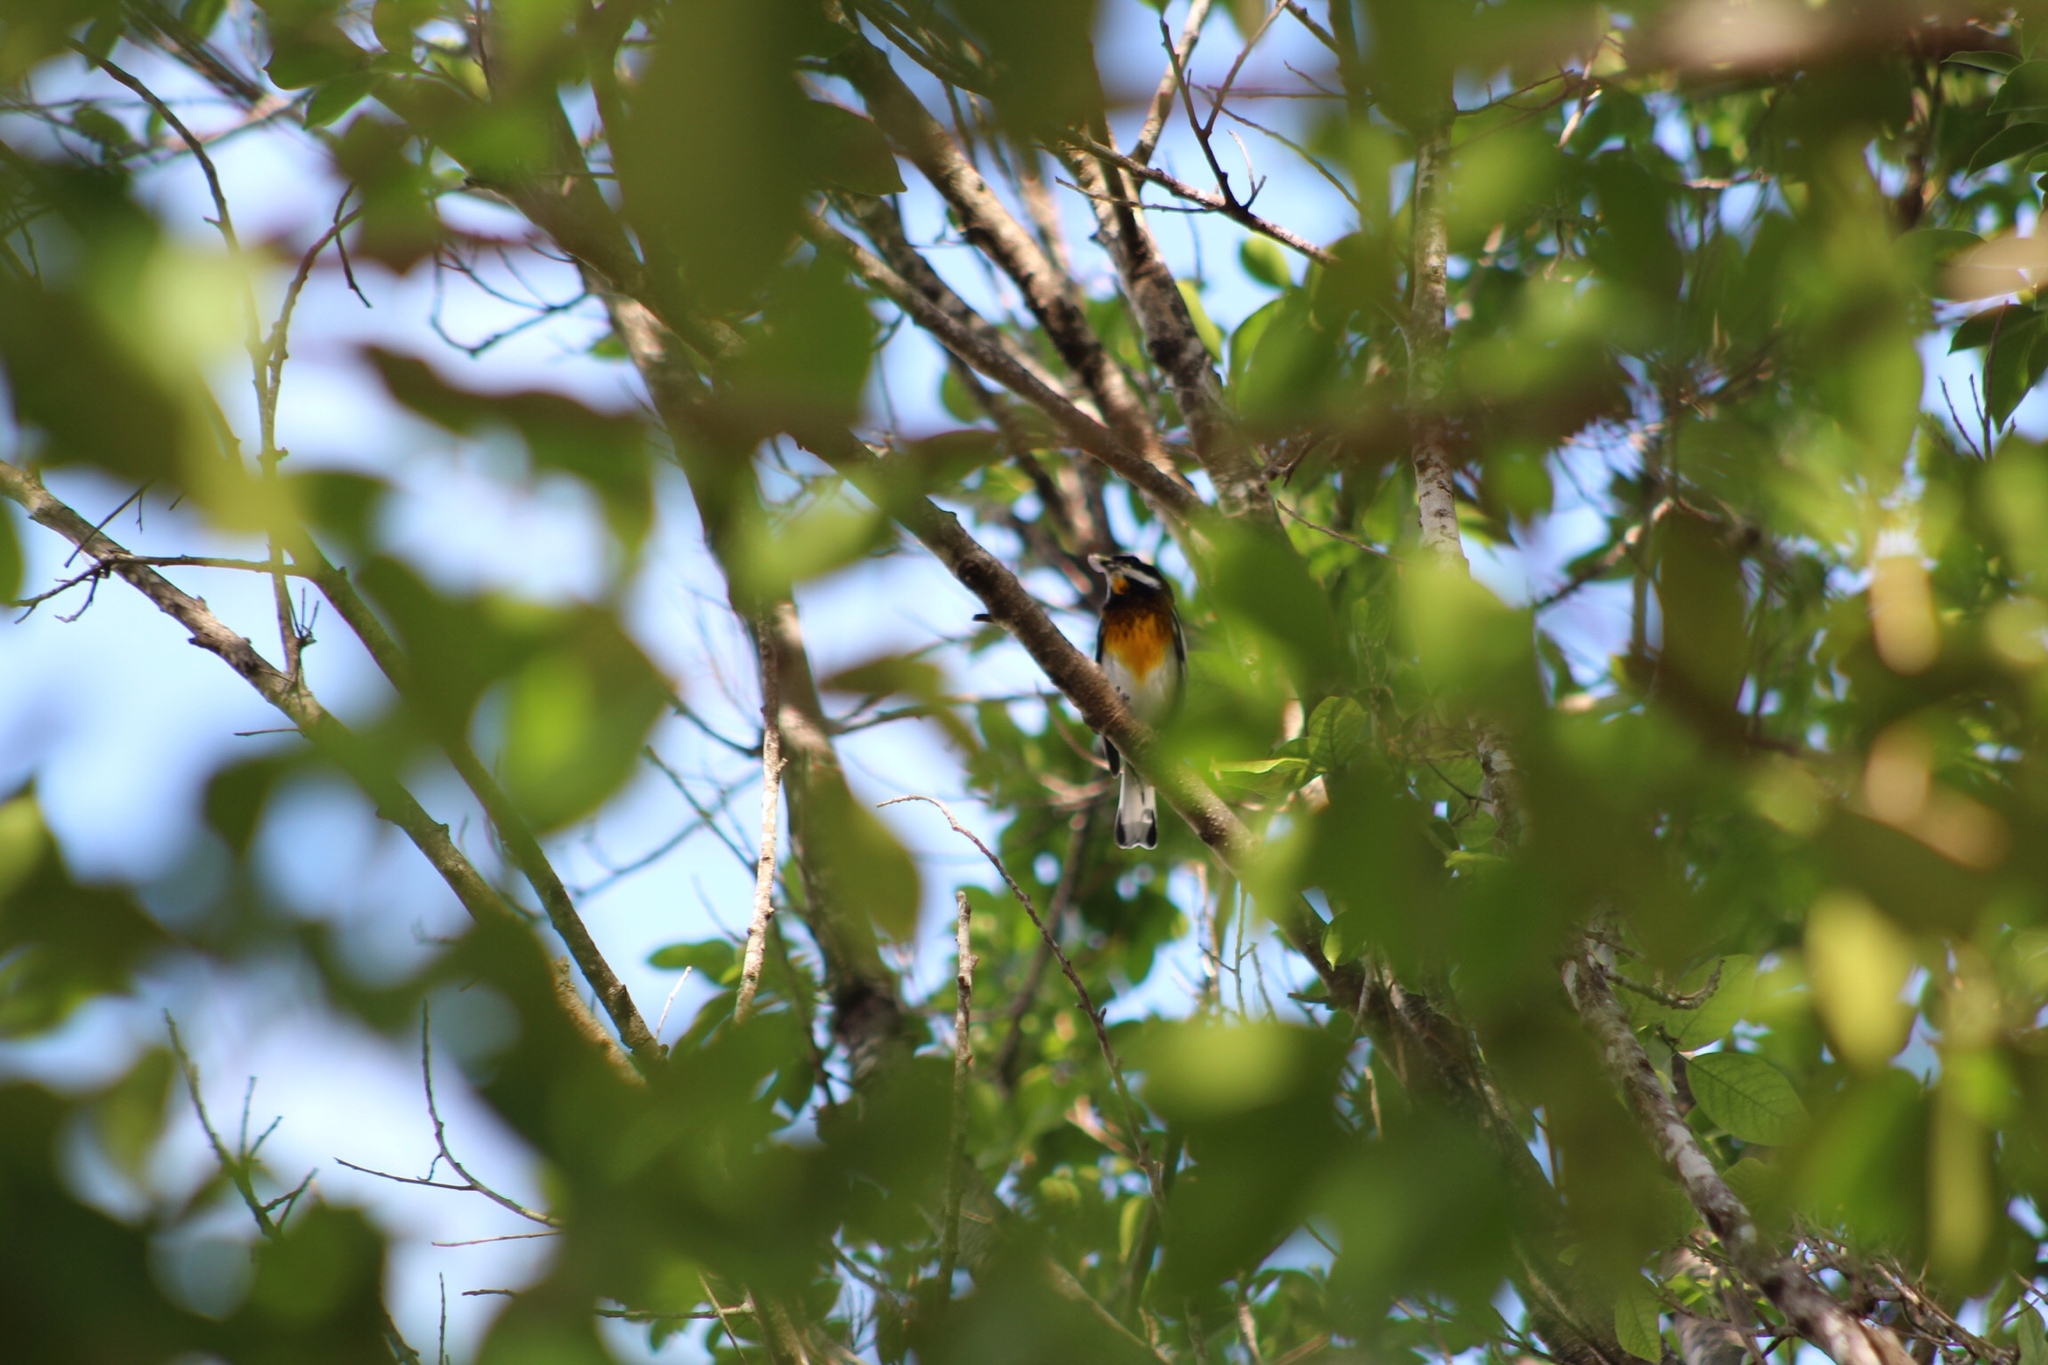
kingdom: Animalia
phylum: Chordata
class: Aves
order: Passeriformes
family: Spindalidae
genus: Spindalis
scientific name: Spindalis zena
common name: Western spindalis
